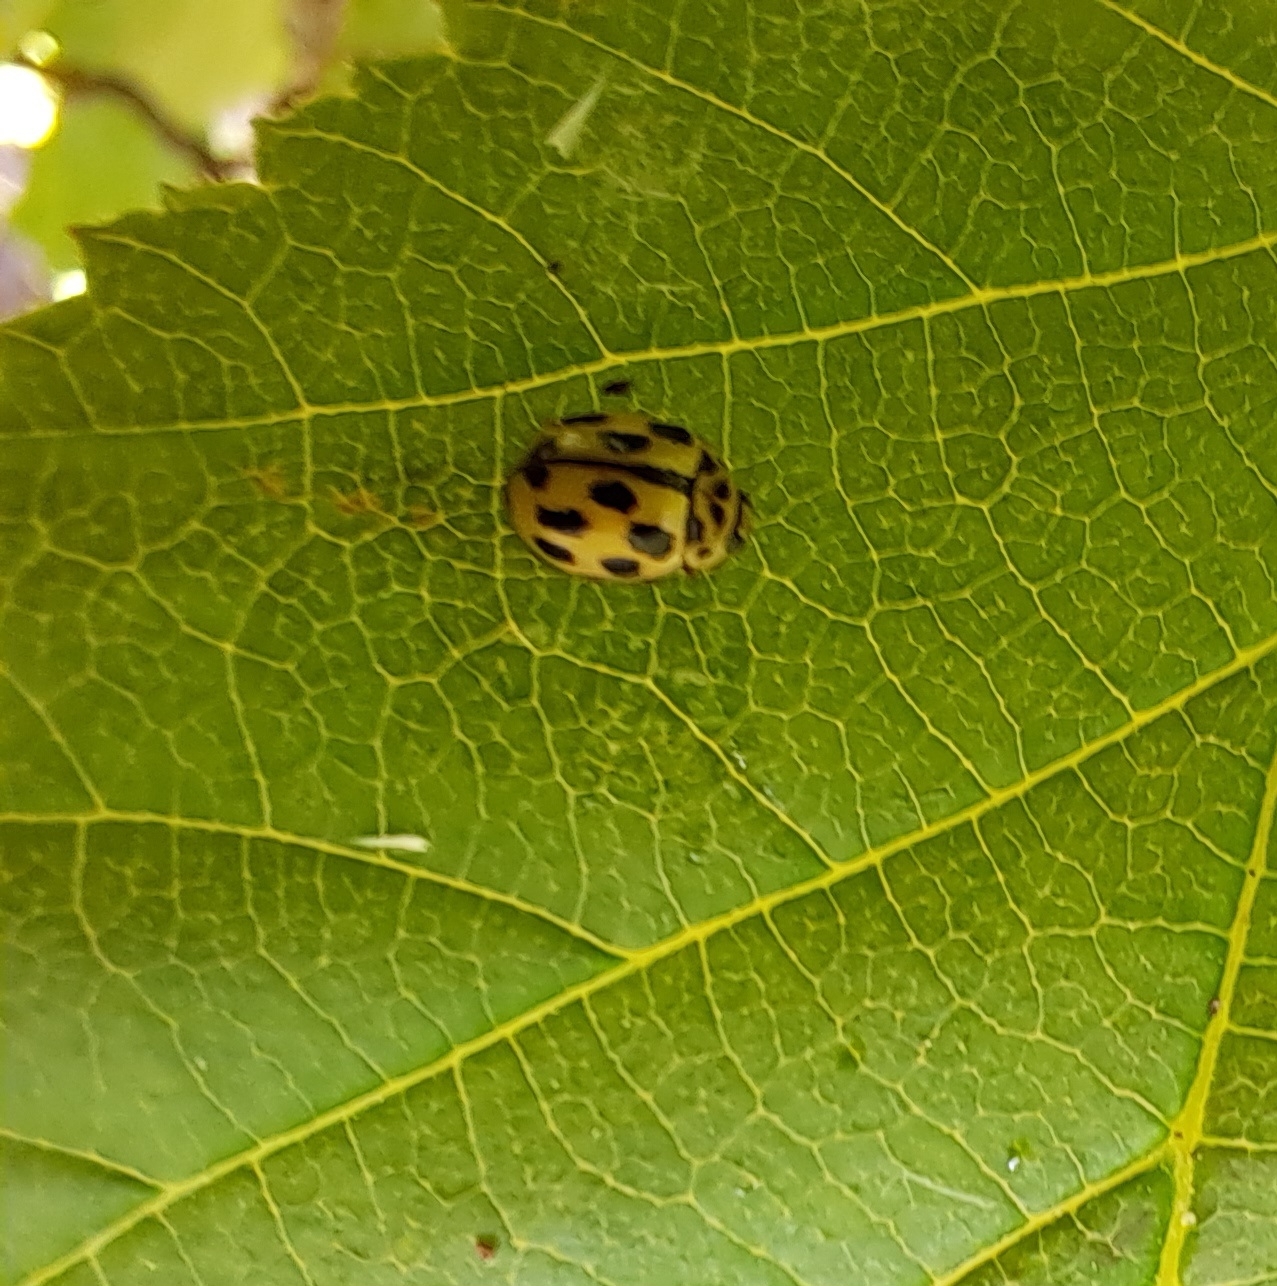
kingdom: Animalia
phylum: Arthropoda
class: Insecta
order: Coleoptera
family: Coccinellidae
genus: Propylaea
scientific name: Propylaea quatuordecimpunctata
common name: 14-spotted ladybird beetle
